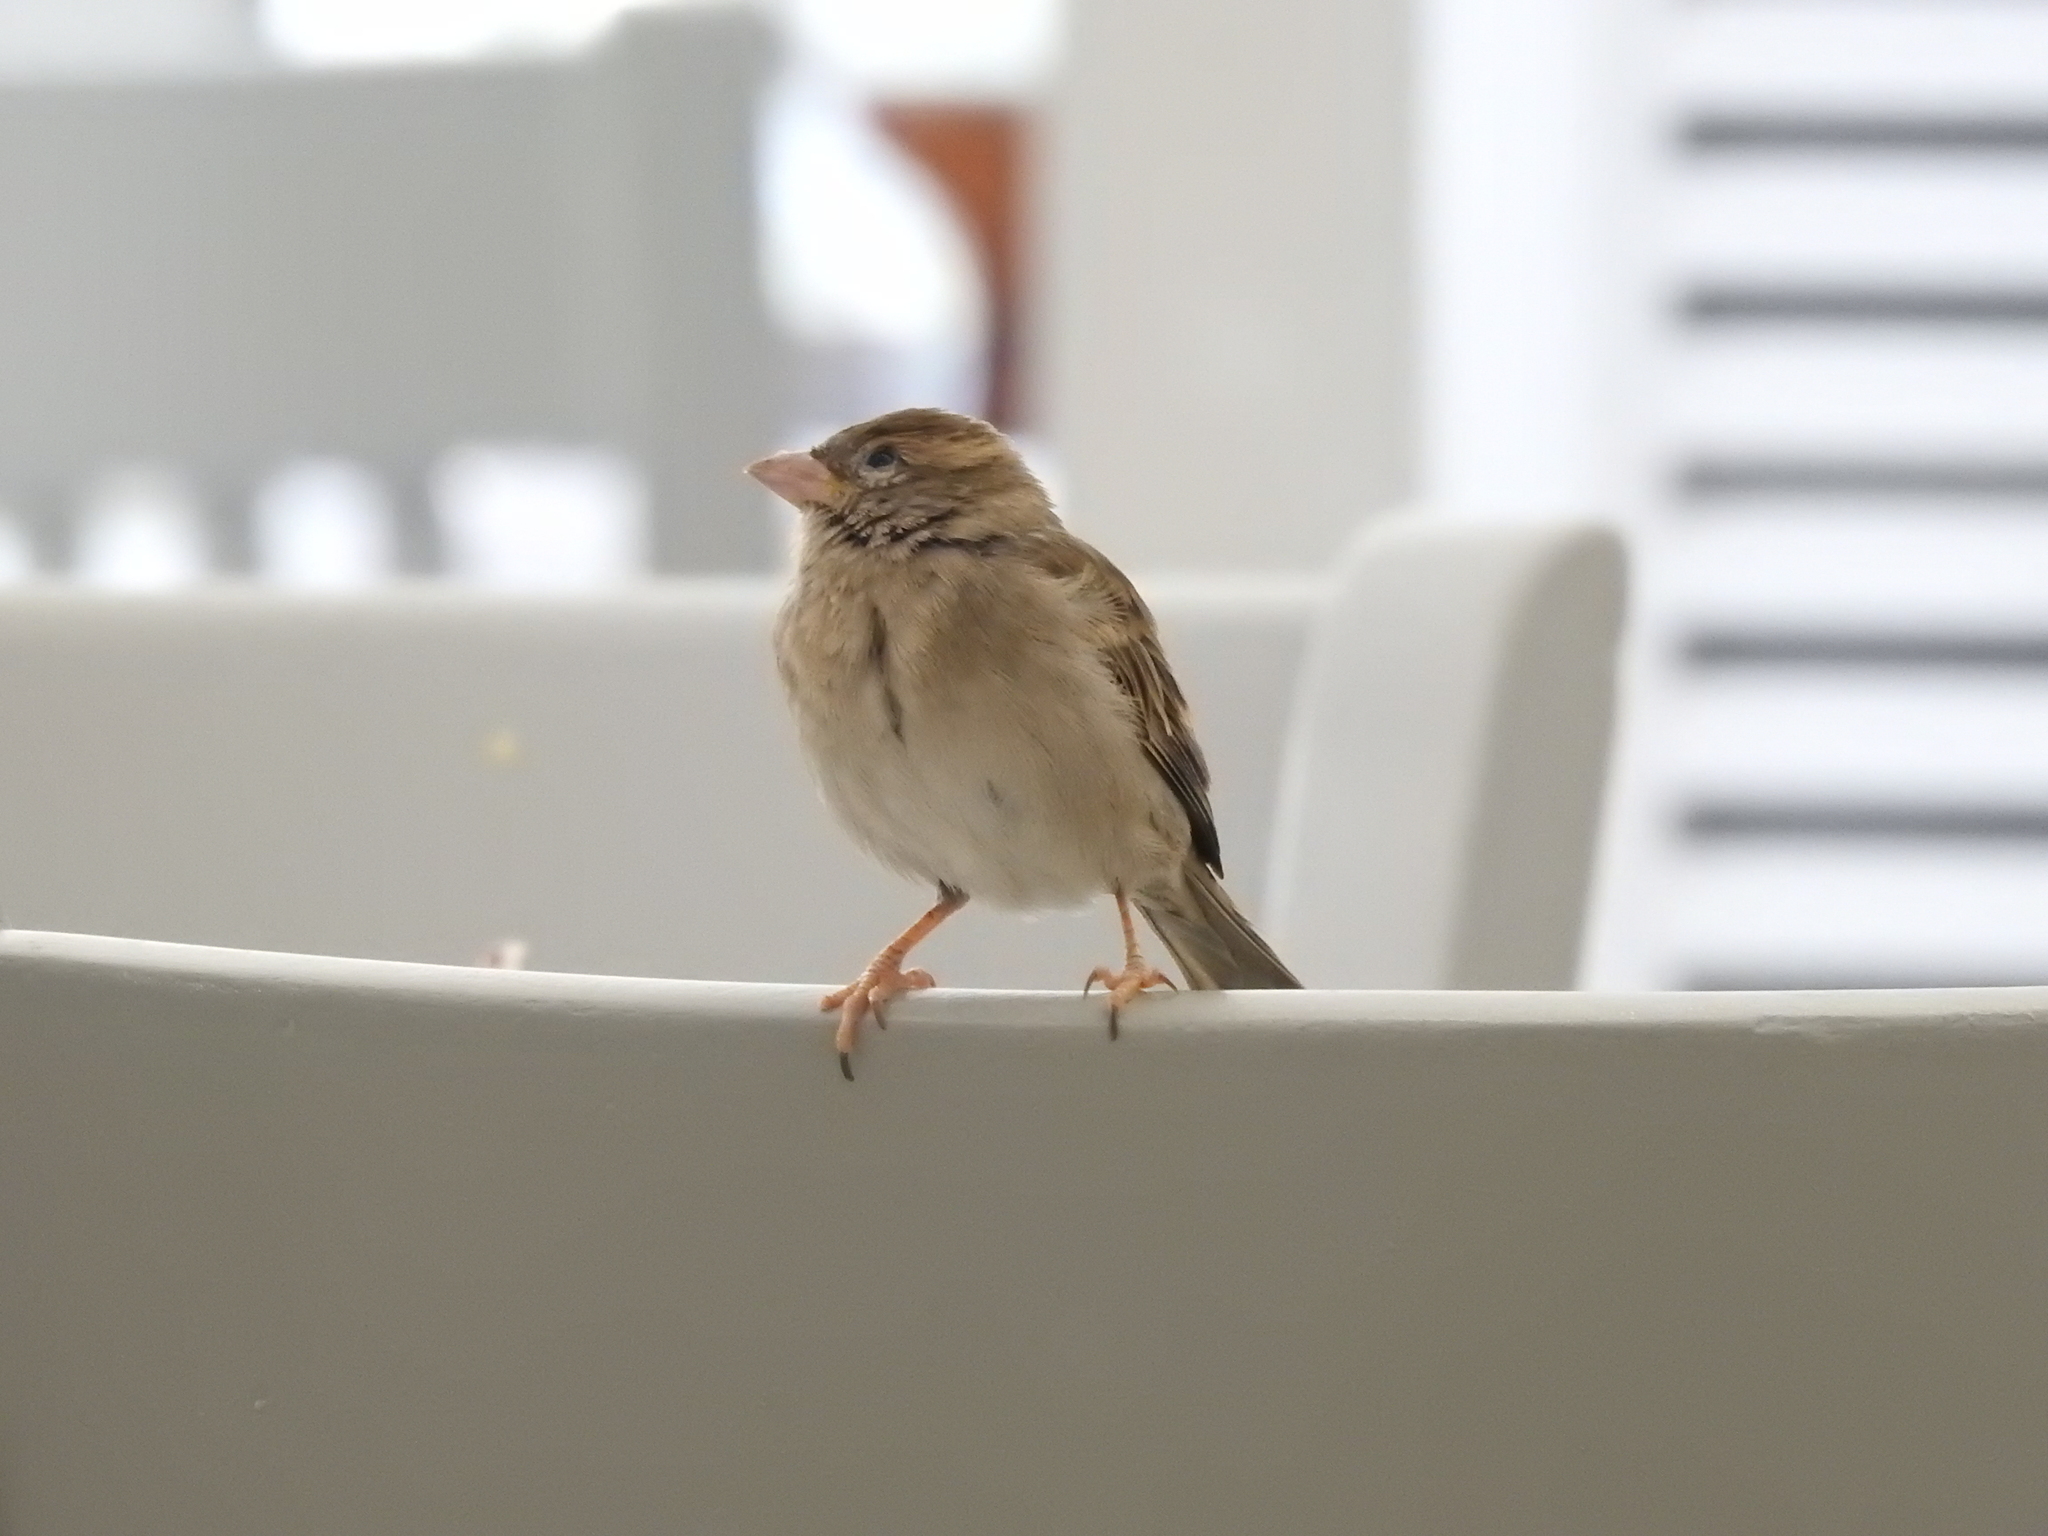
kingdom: Animalia
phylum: Chordata
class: Aves
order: Passeriformes
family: Passeridae
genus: Passer
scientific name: Passer domesticus
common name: House sparrow
